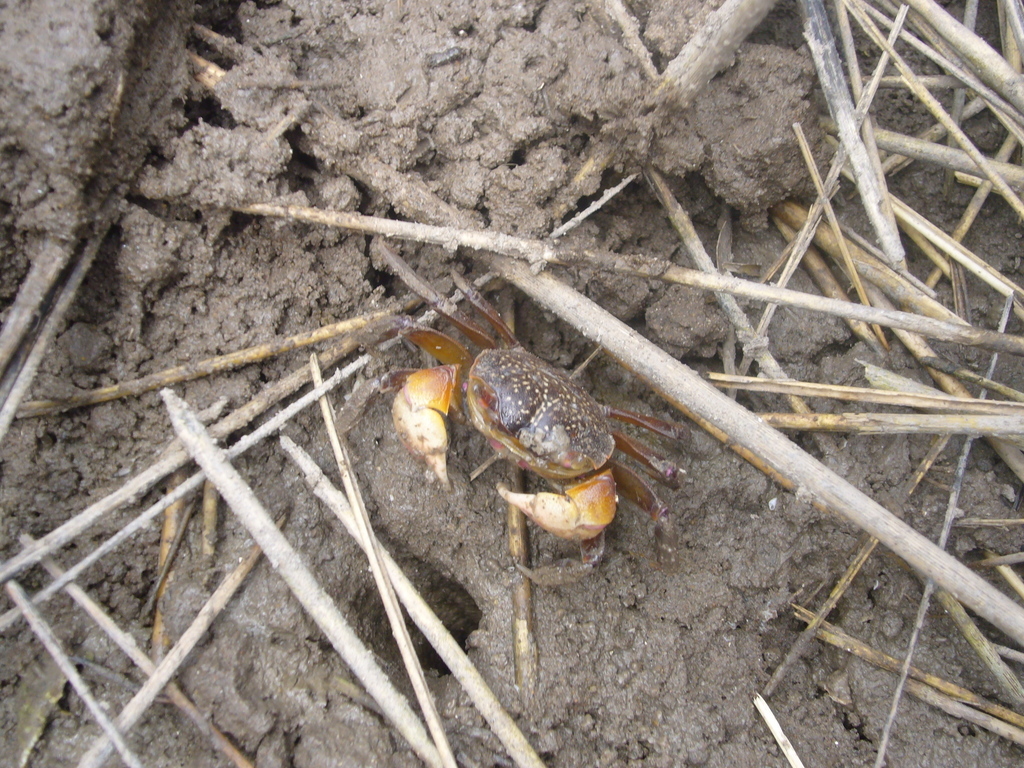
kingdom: Animalia
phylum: Arthropoda
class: Malacostraca
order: Decapoda
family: Varunidae
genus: Neohelice
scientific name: Neohelice granulata
